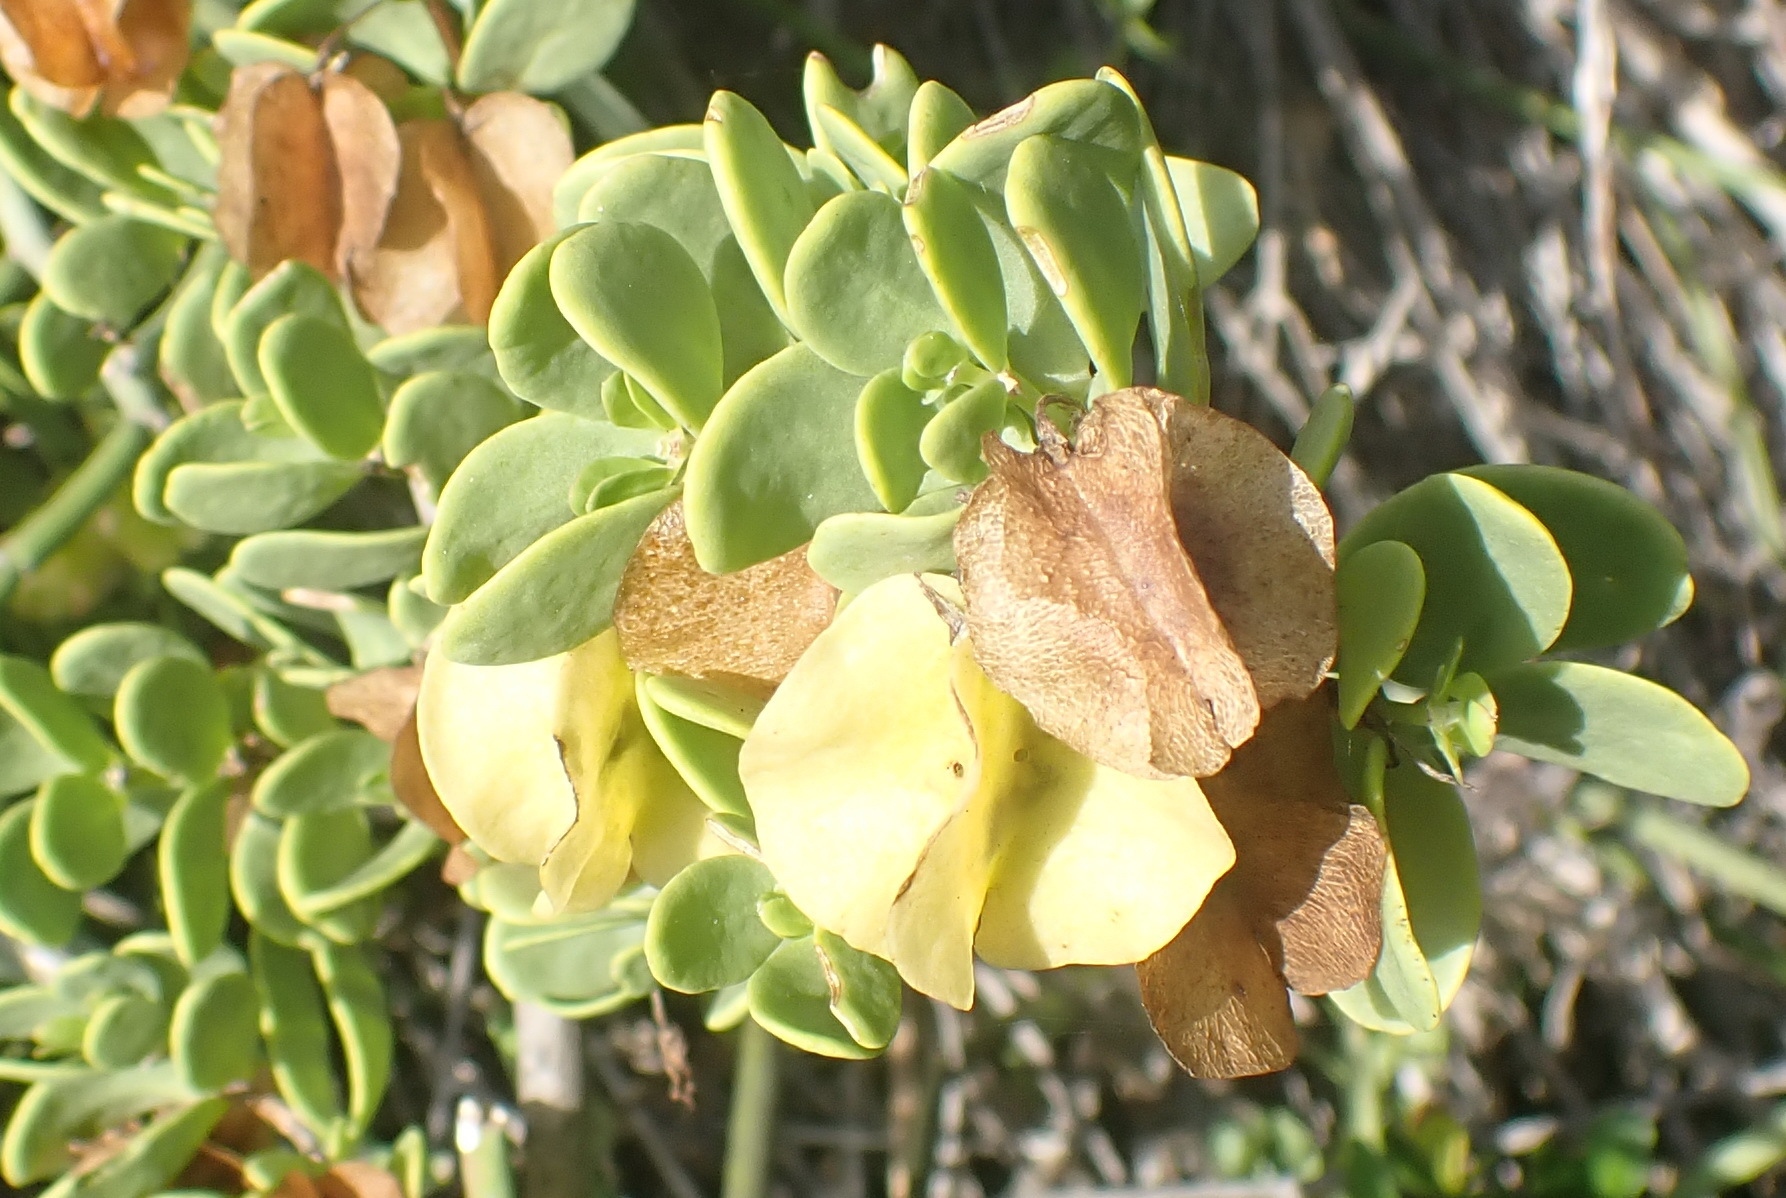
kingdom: Plantae
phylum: Tracheophyta
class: Magnoliopsida
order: Zygophyllales
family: Zygophyllaceae
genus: Roepera
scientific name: Roepera morgsana
